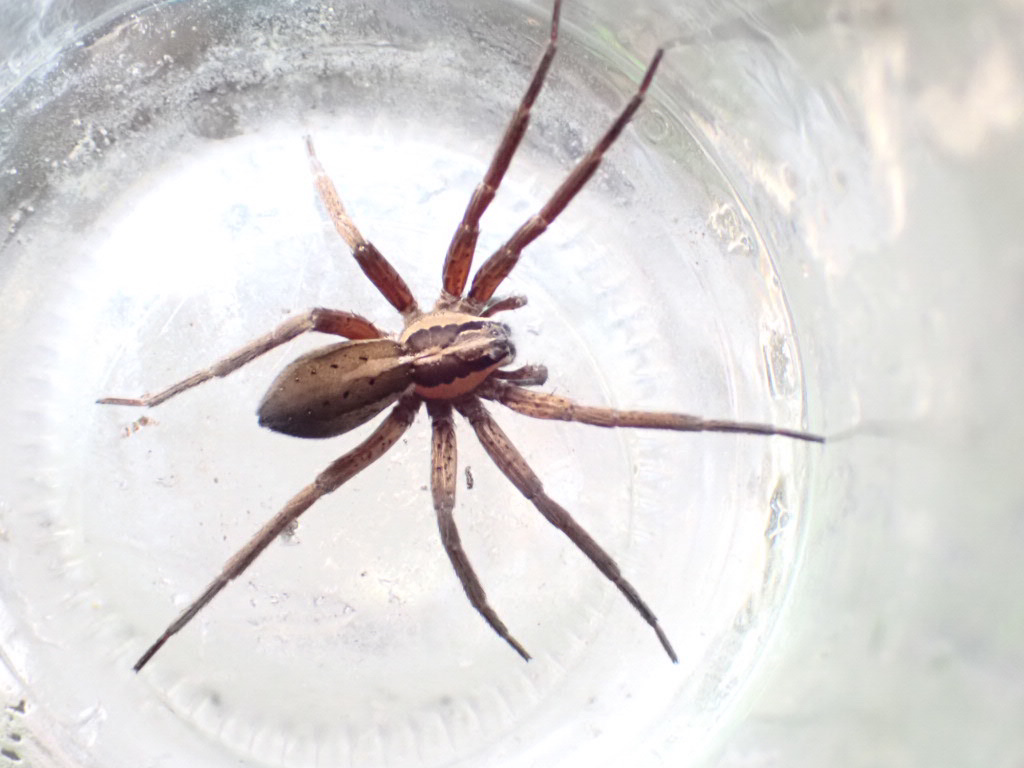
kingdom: Animalia
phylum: Arthropoda
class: Arachnida
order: Araneae
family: Pisauridae
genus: Dolomedes
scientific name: Dolomedes minor
